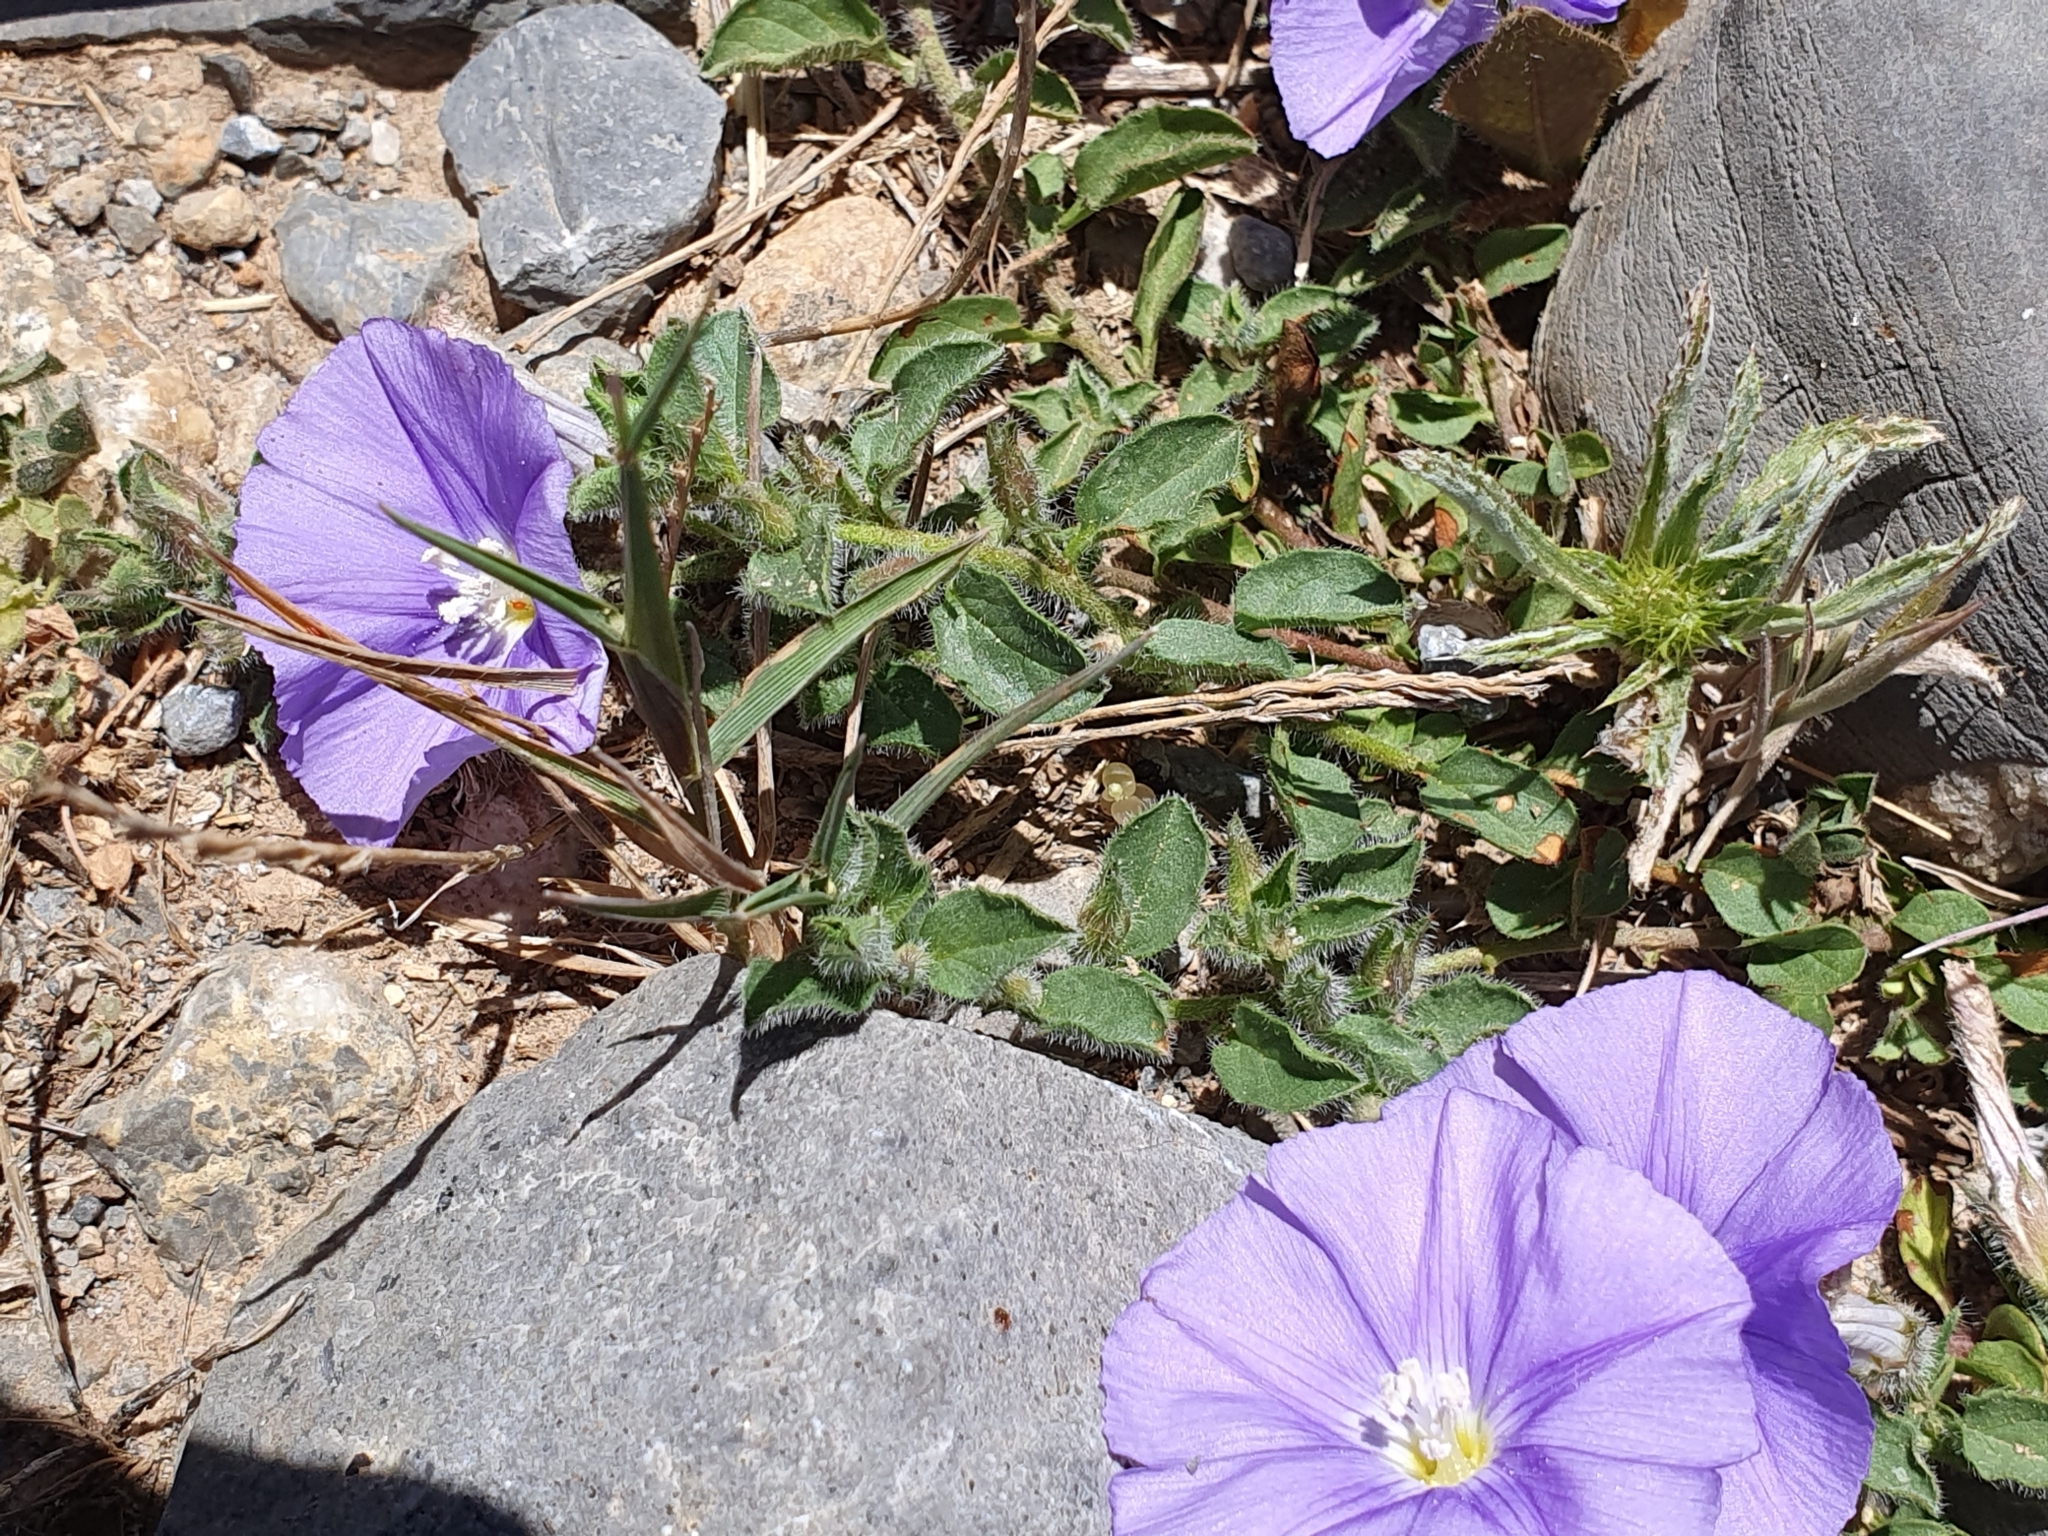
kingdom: Plantae
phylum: Tracheophyta
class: Magnoliopsida
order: Solanales
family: Convolvulaceae
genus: Convolvulus
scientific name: Convolvulus sabatius
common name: Ground blue-convolvulus
